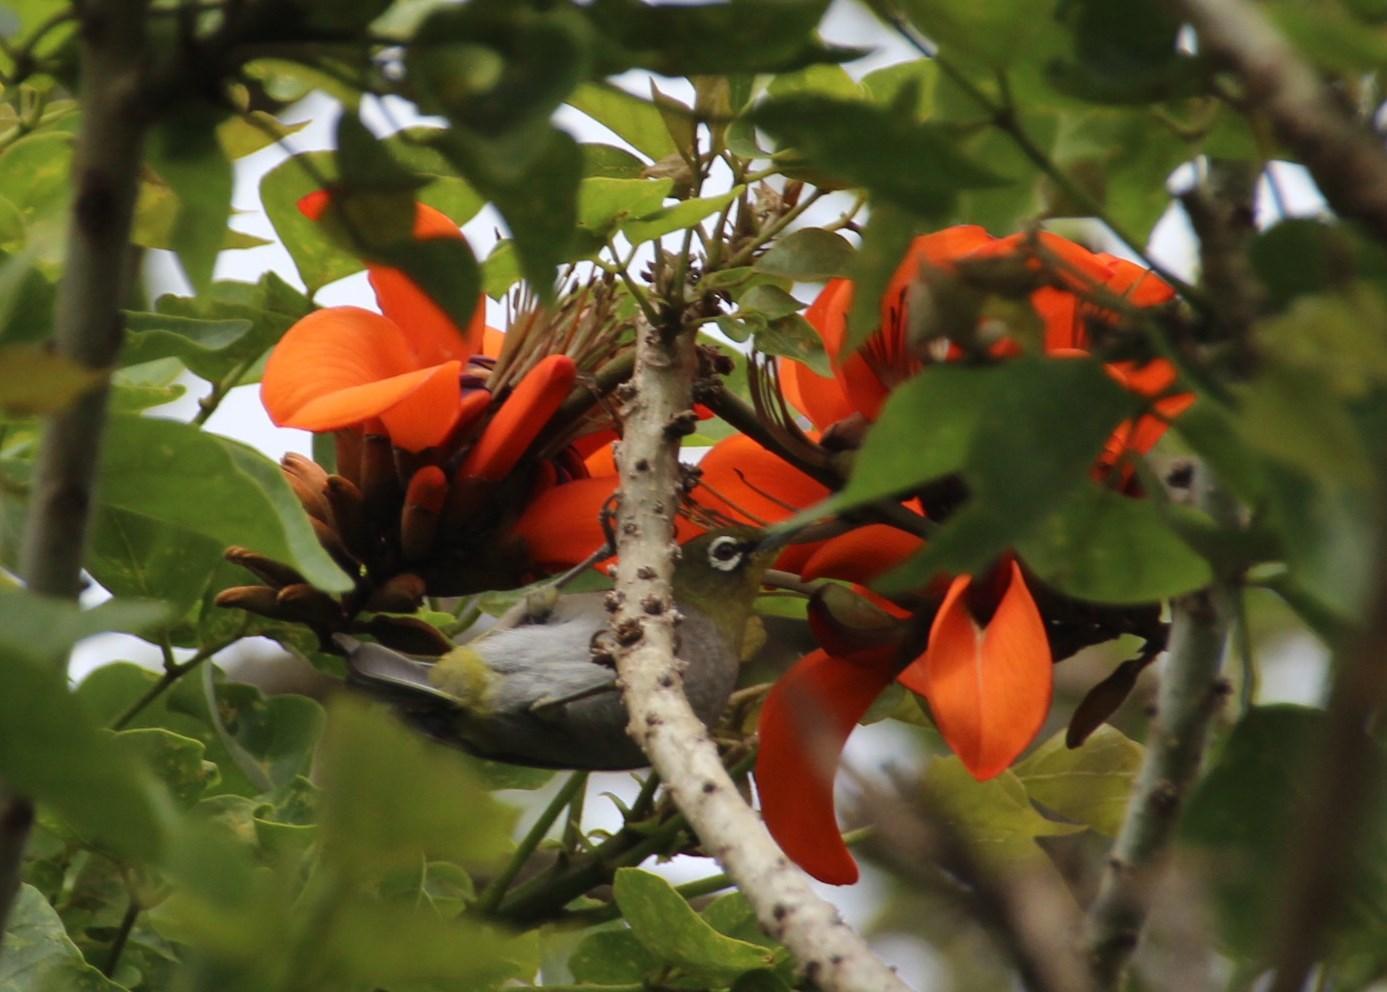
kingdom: Animalia
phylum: Chordata
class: Aves
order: Passeriformes
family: Zosteropidae
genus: Zosterops
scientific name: Zosterops virens
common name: Cape white-eye
